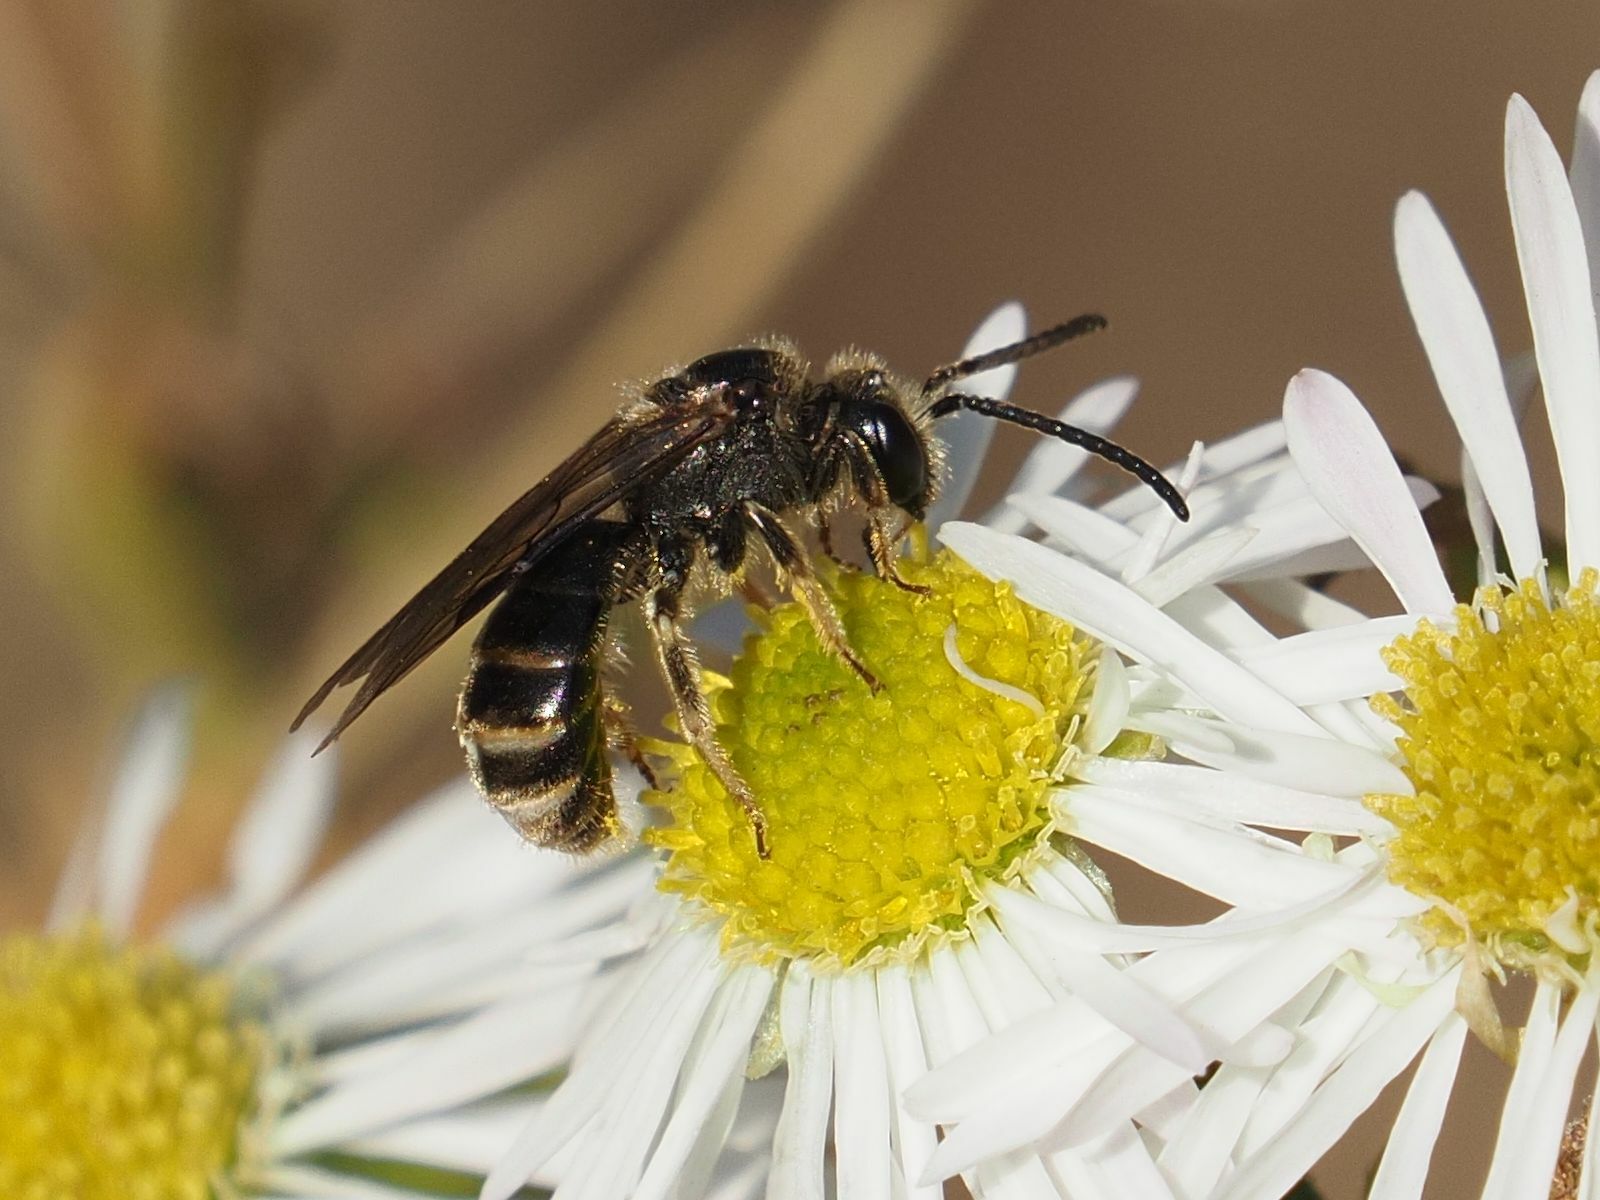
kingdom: Animalia
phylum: Arthropoda
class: Insecta
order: Hymenoptera
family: Halictidae
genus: Lasioglossum
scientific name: Lasioglossum marginatum
